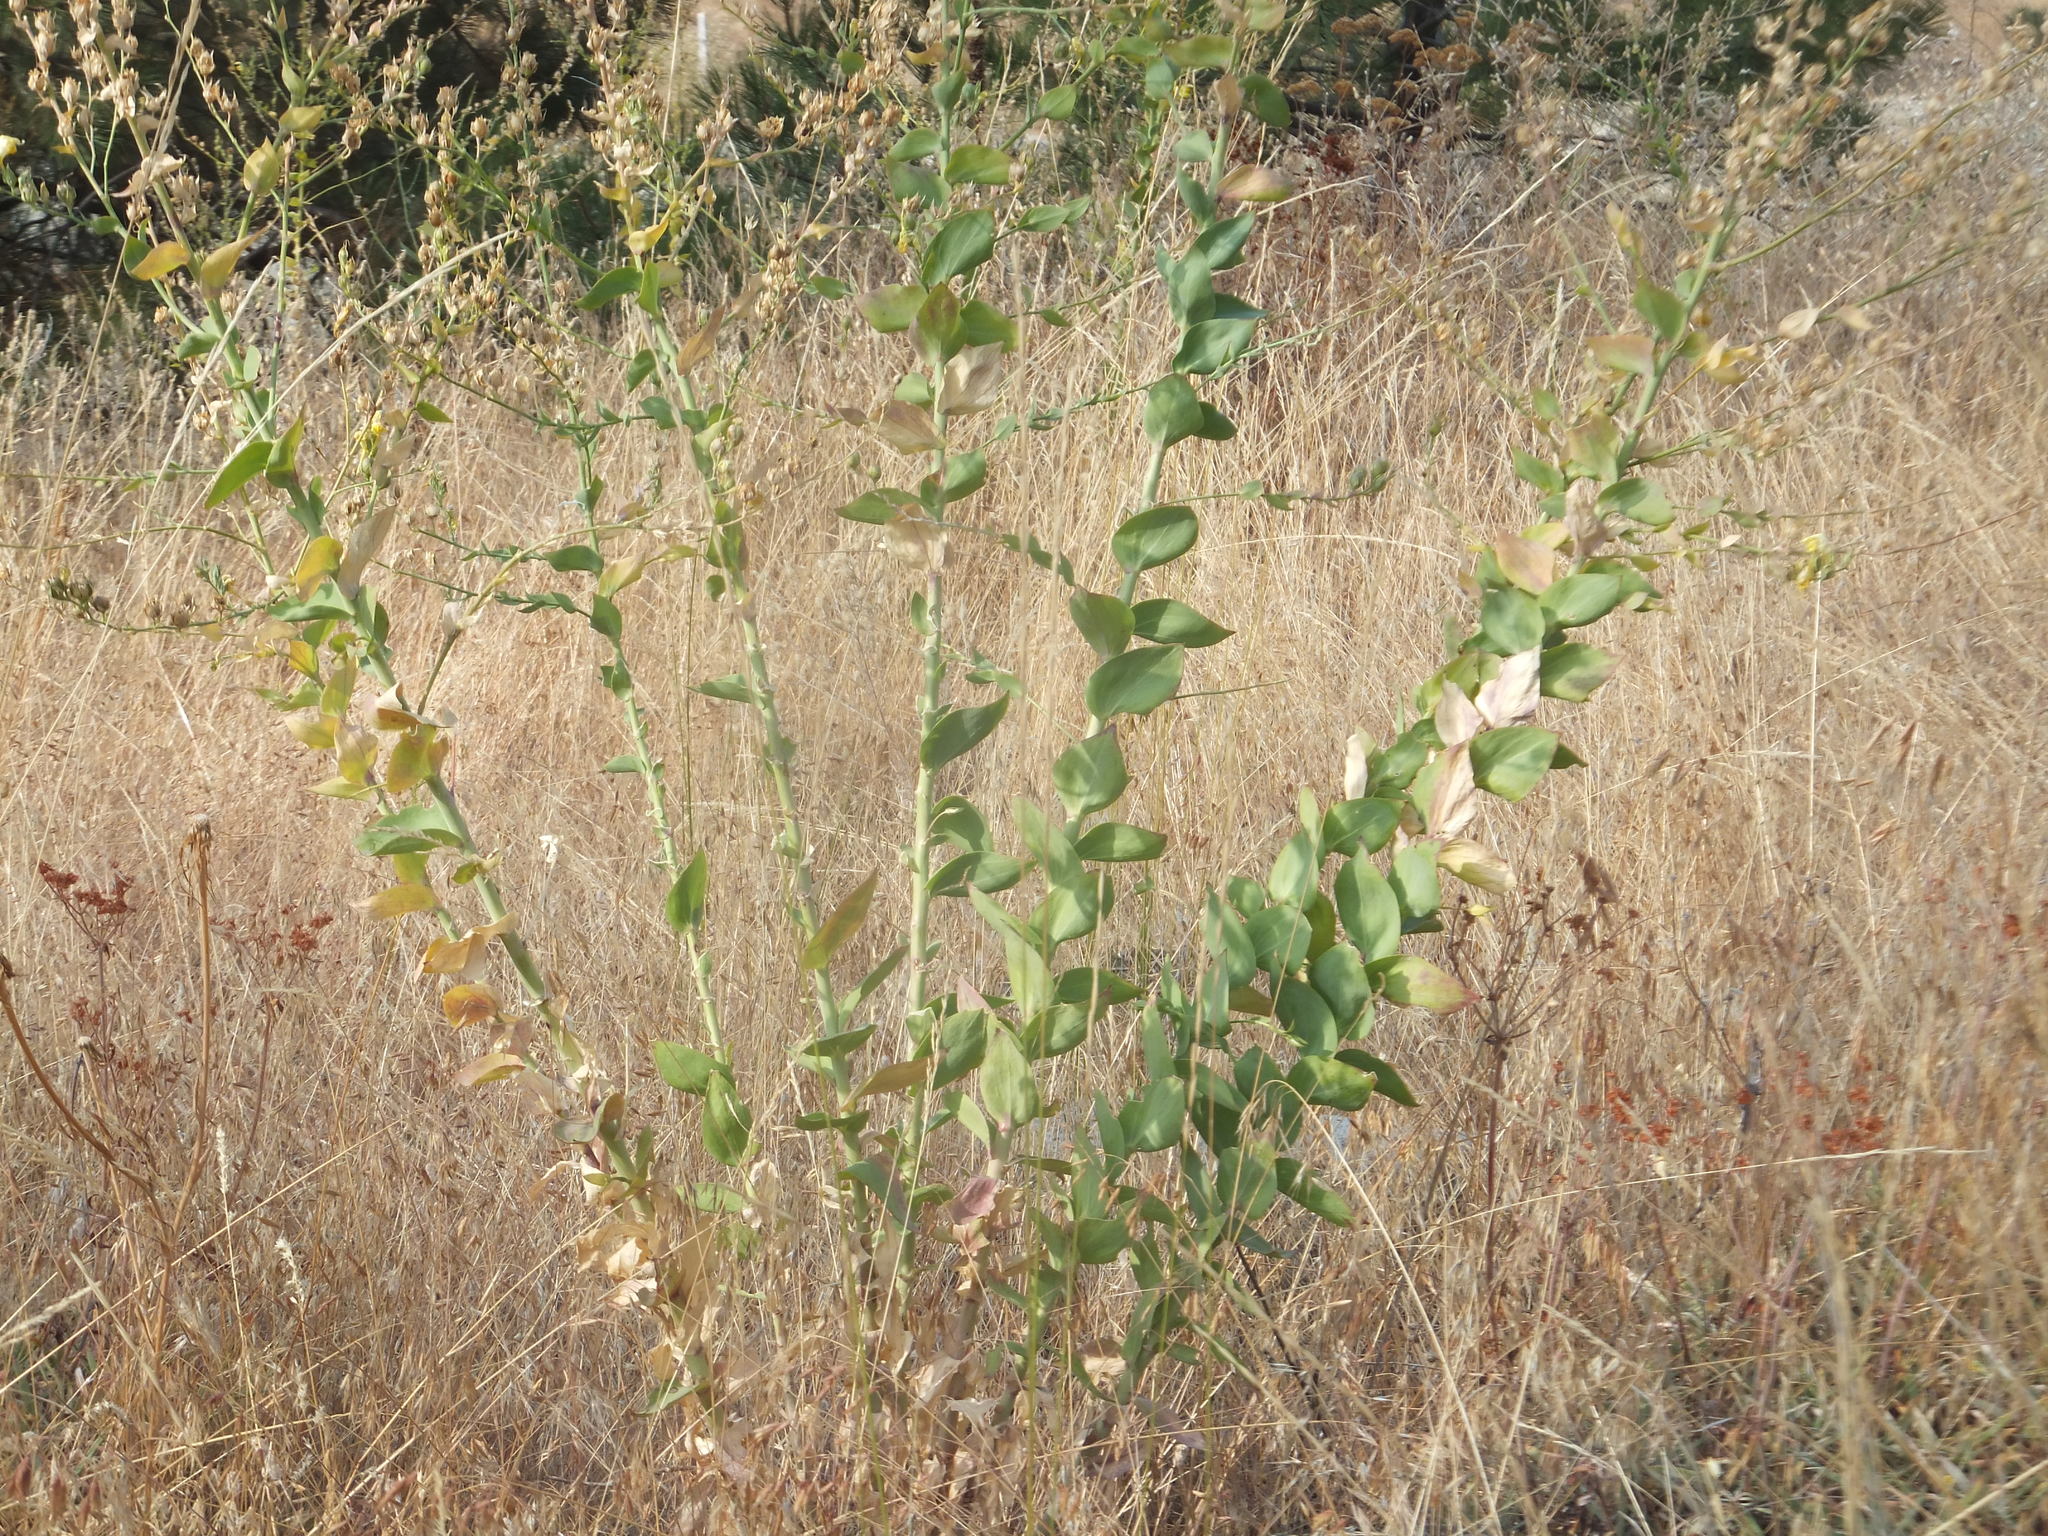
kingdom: Plantae
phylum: Tracheophyta
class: Magnoliopsida
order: Lamiales
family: Plantaginaceae
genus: Linaria
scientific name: Linaria dalmatica
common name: Dalmatian toadflax
